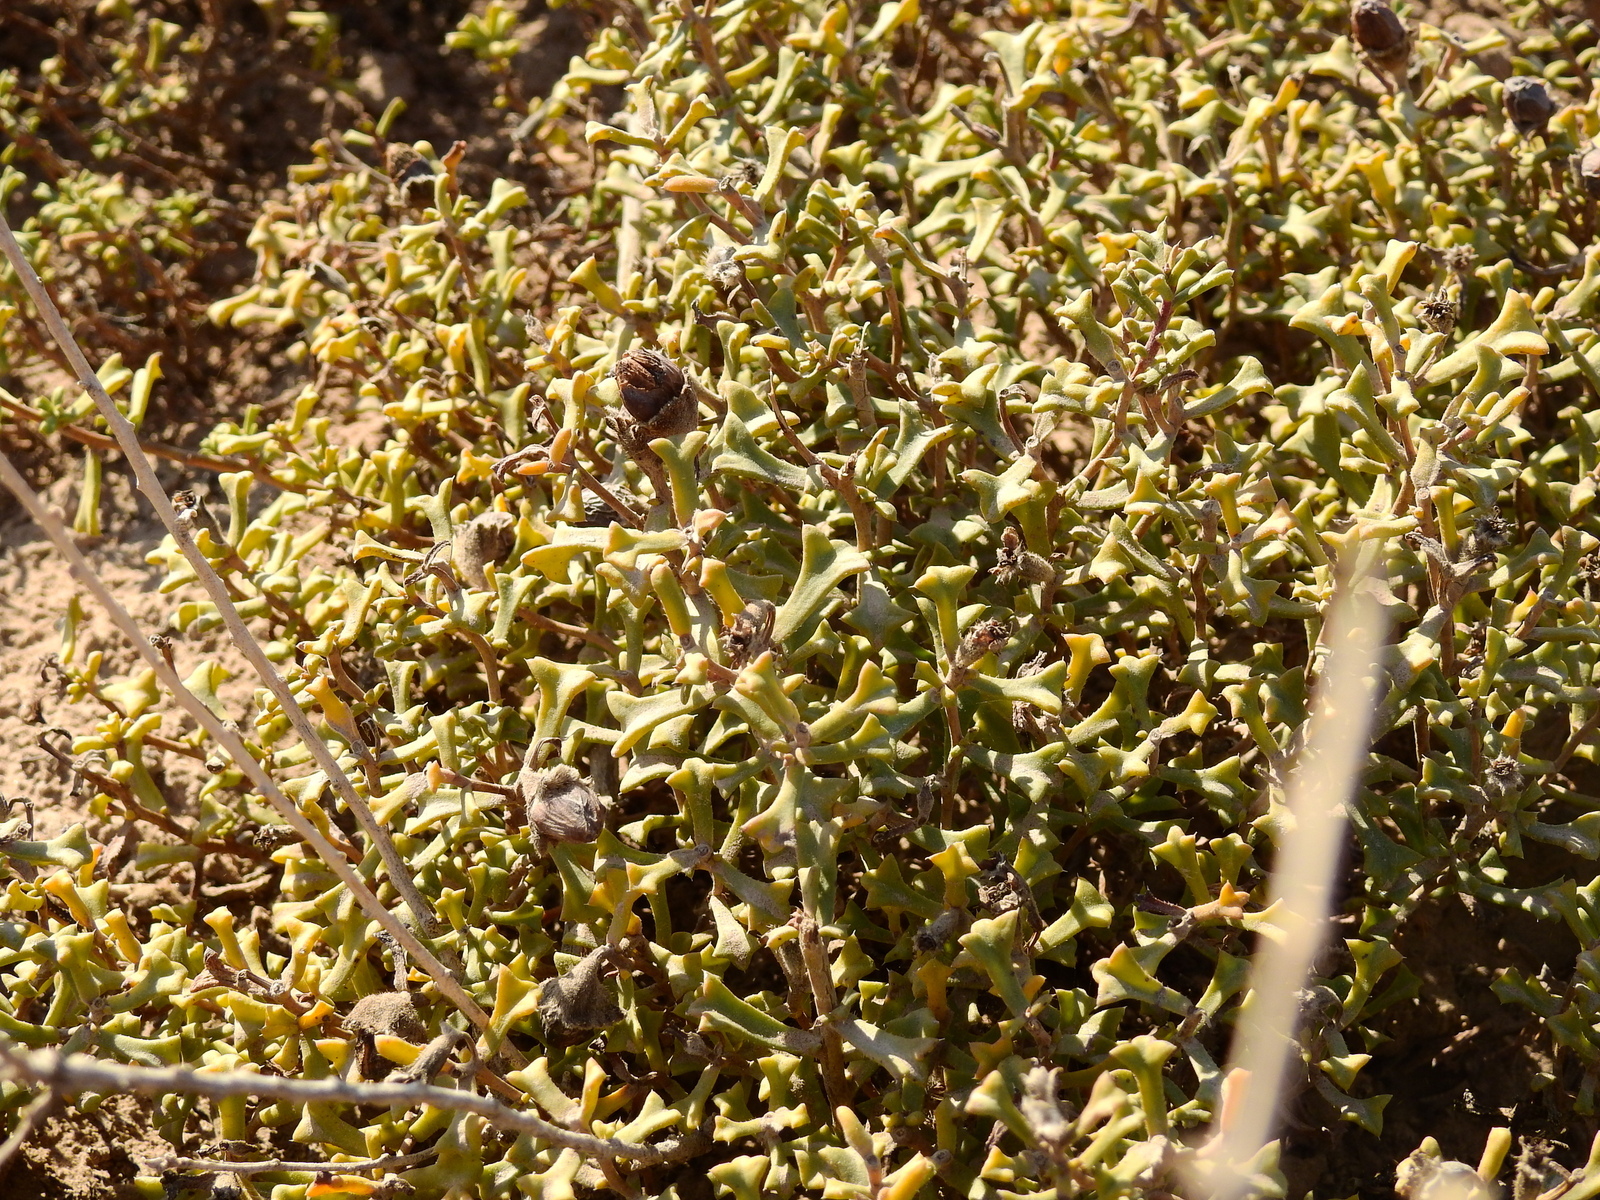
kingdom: Plantae
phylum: Tracheophyta
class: Magnoliopsida
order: Boraginales
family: Ehretiaceae
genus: Ehretia
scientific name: Ehretia cortesia
